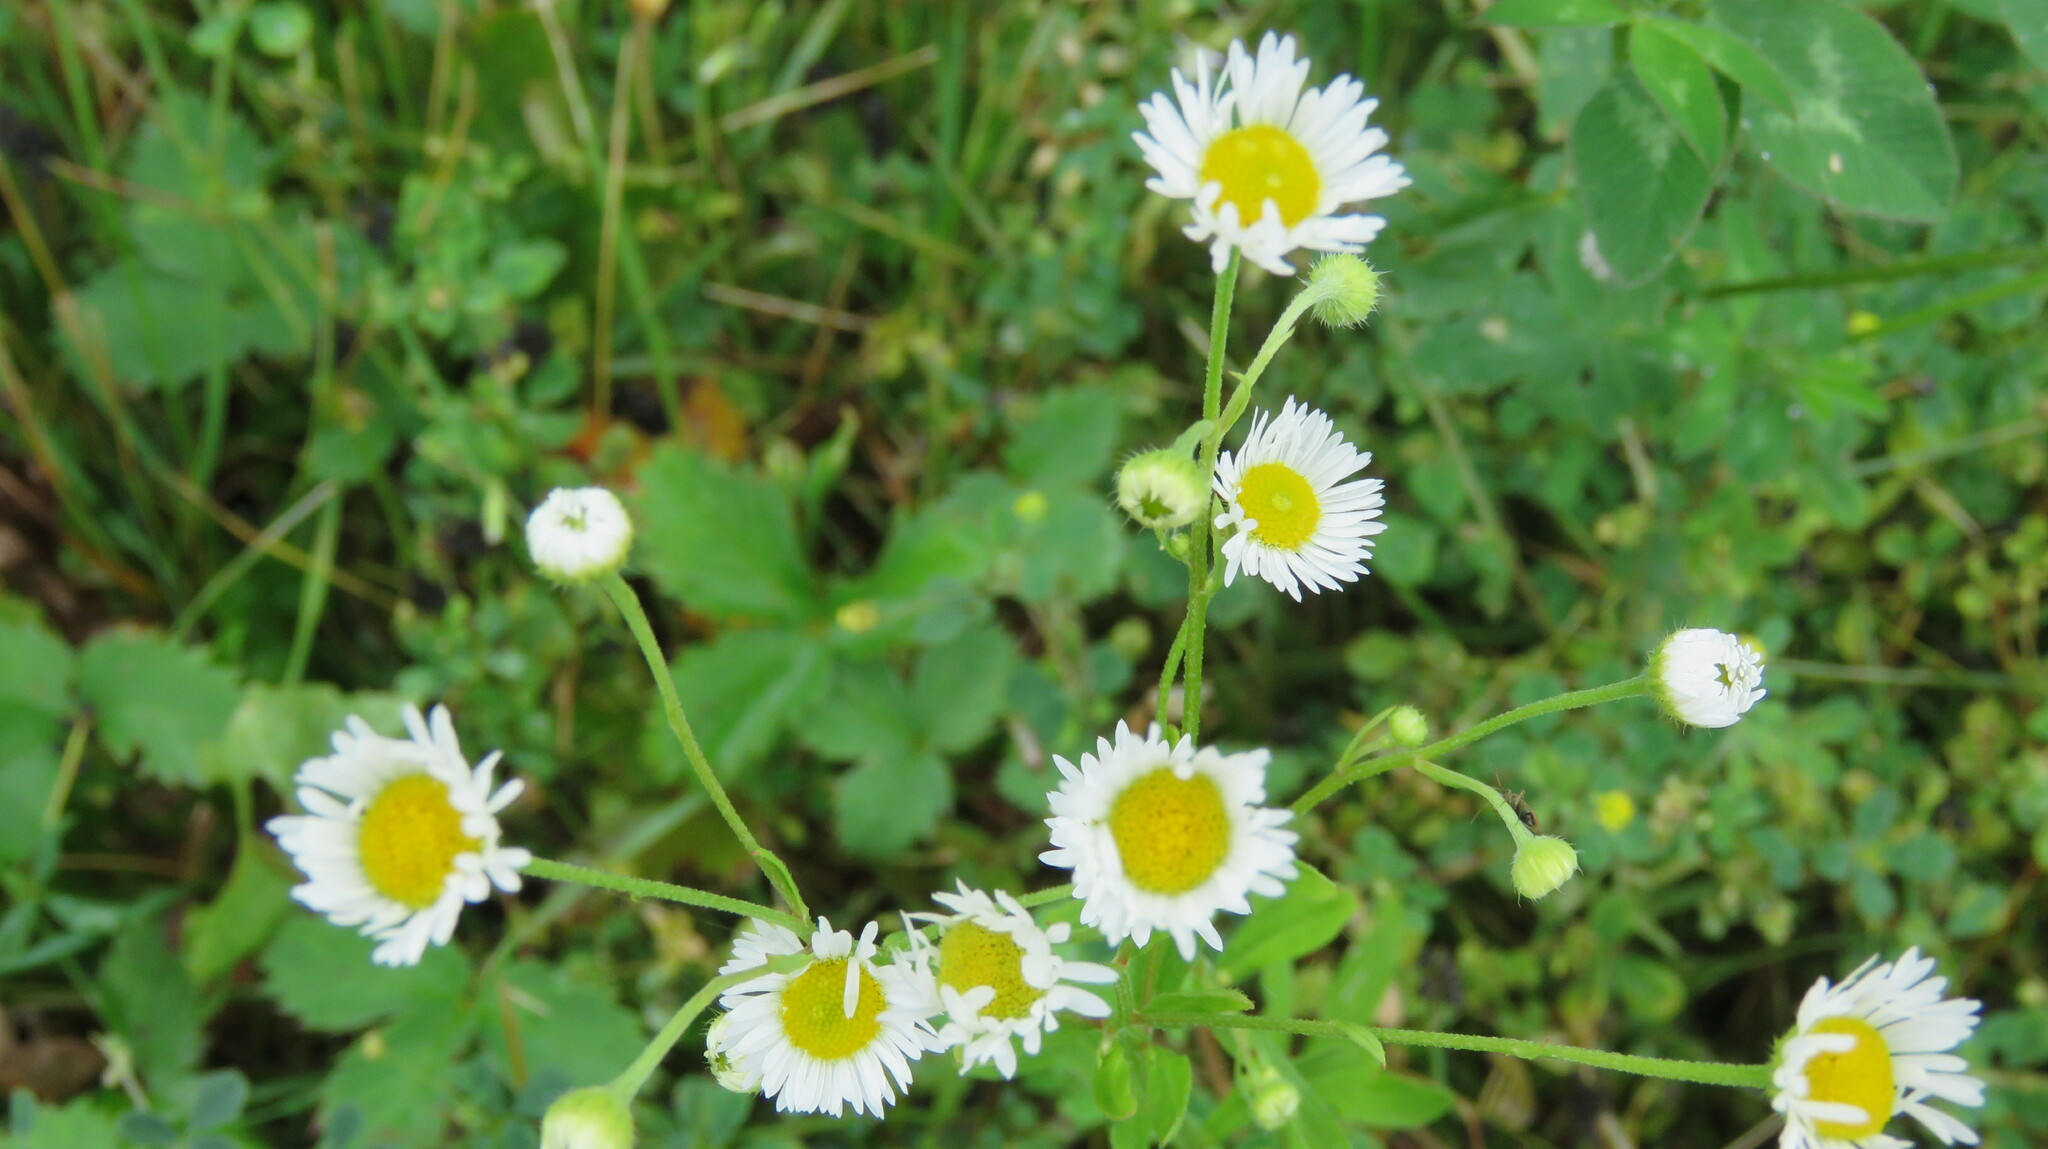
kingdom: Plantae
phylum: Tracheophyta
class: Magnoliopsida
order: Asterales
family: Asteraceae
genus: Erigeron
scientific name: Erigeron strigosus
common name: Common eastern fleabane
